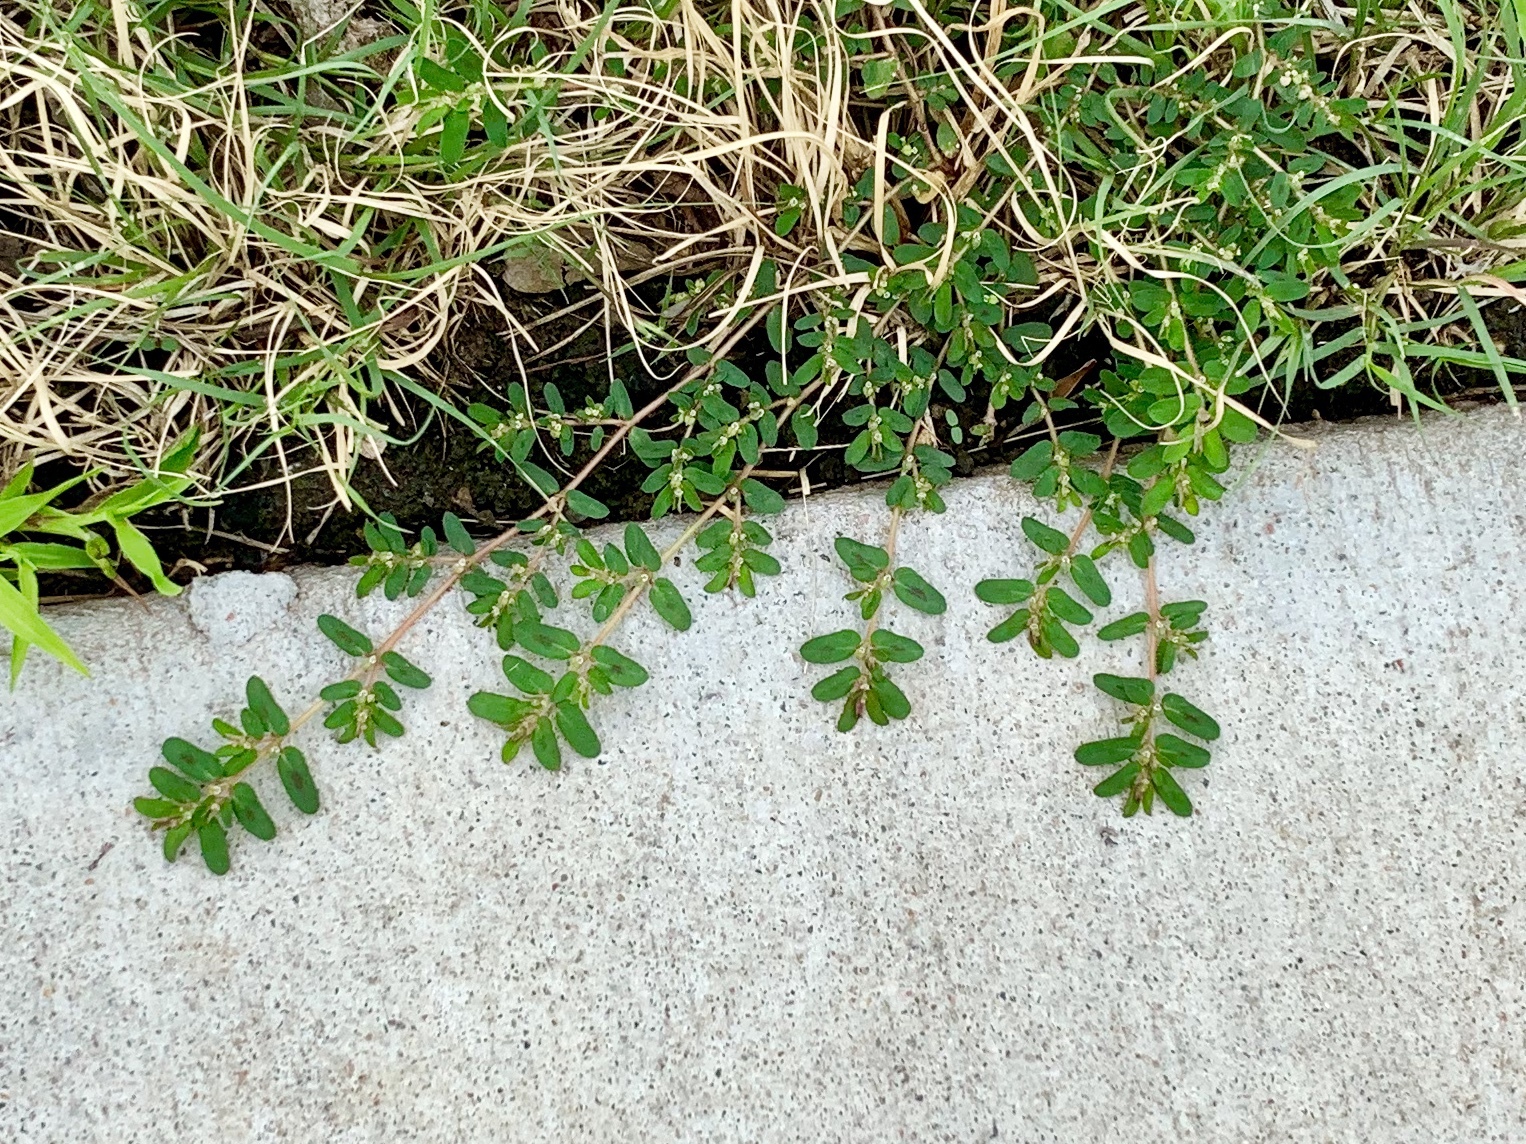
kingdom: Plantae
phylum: Tracheophyta
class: Magnoliopsida
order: Malpighiales
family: Euphorbiaceae
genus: Euphorbia
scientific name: Euphorbia maculata
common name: Spotted spurge
